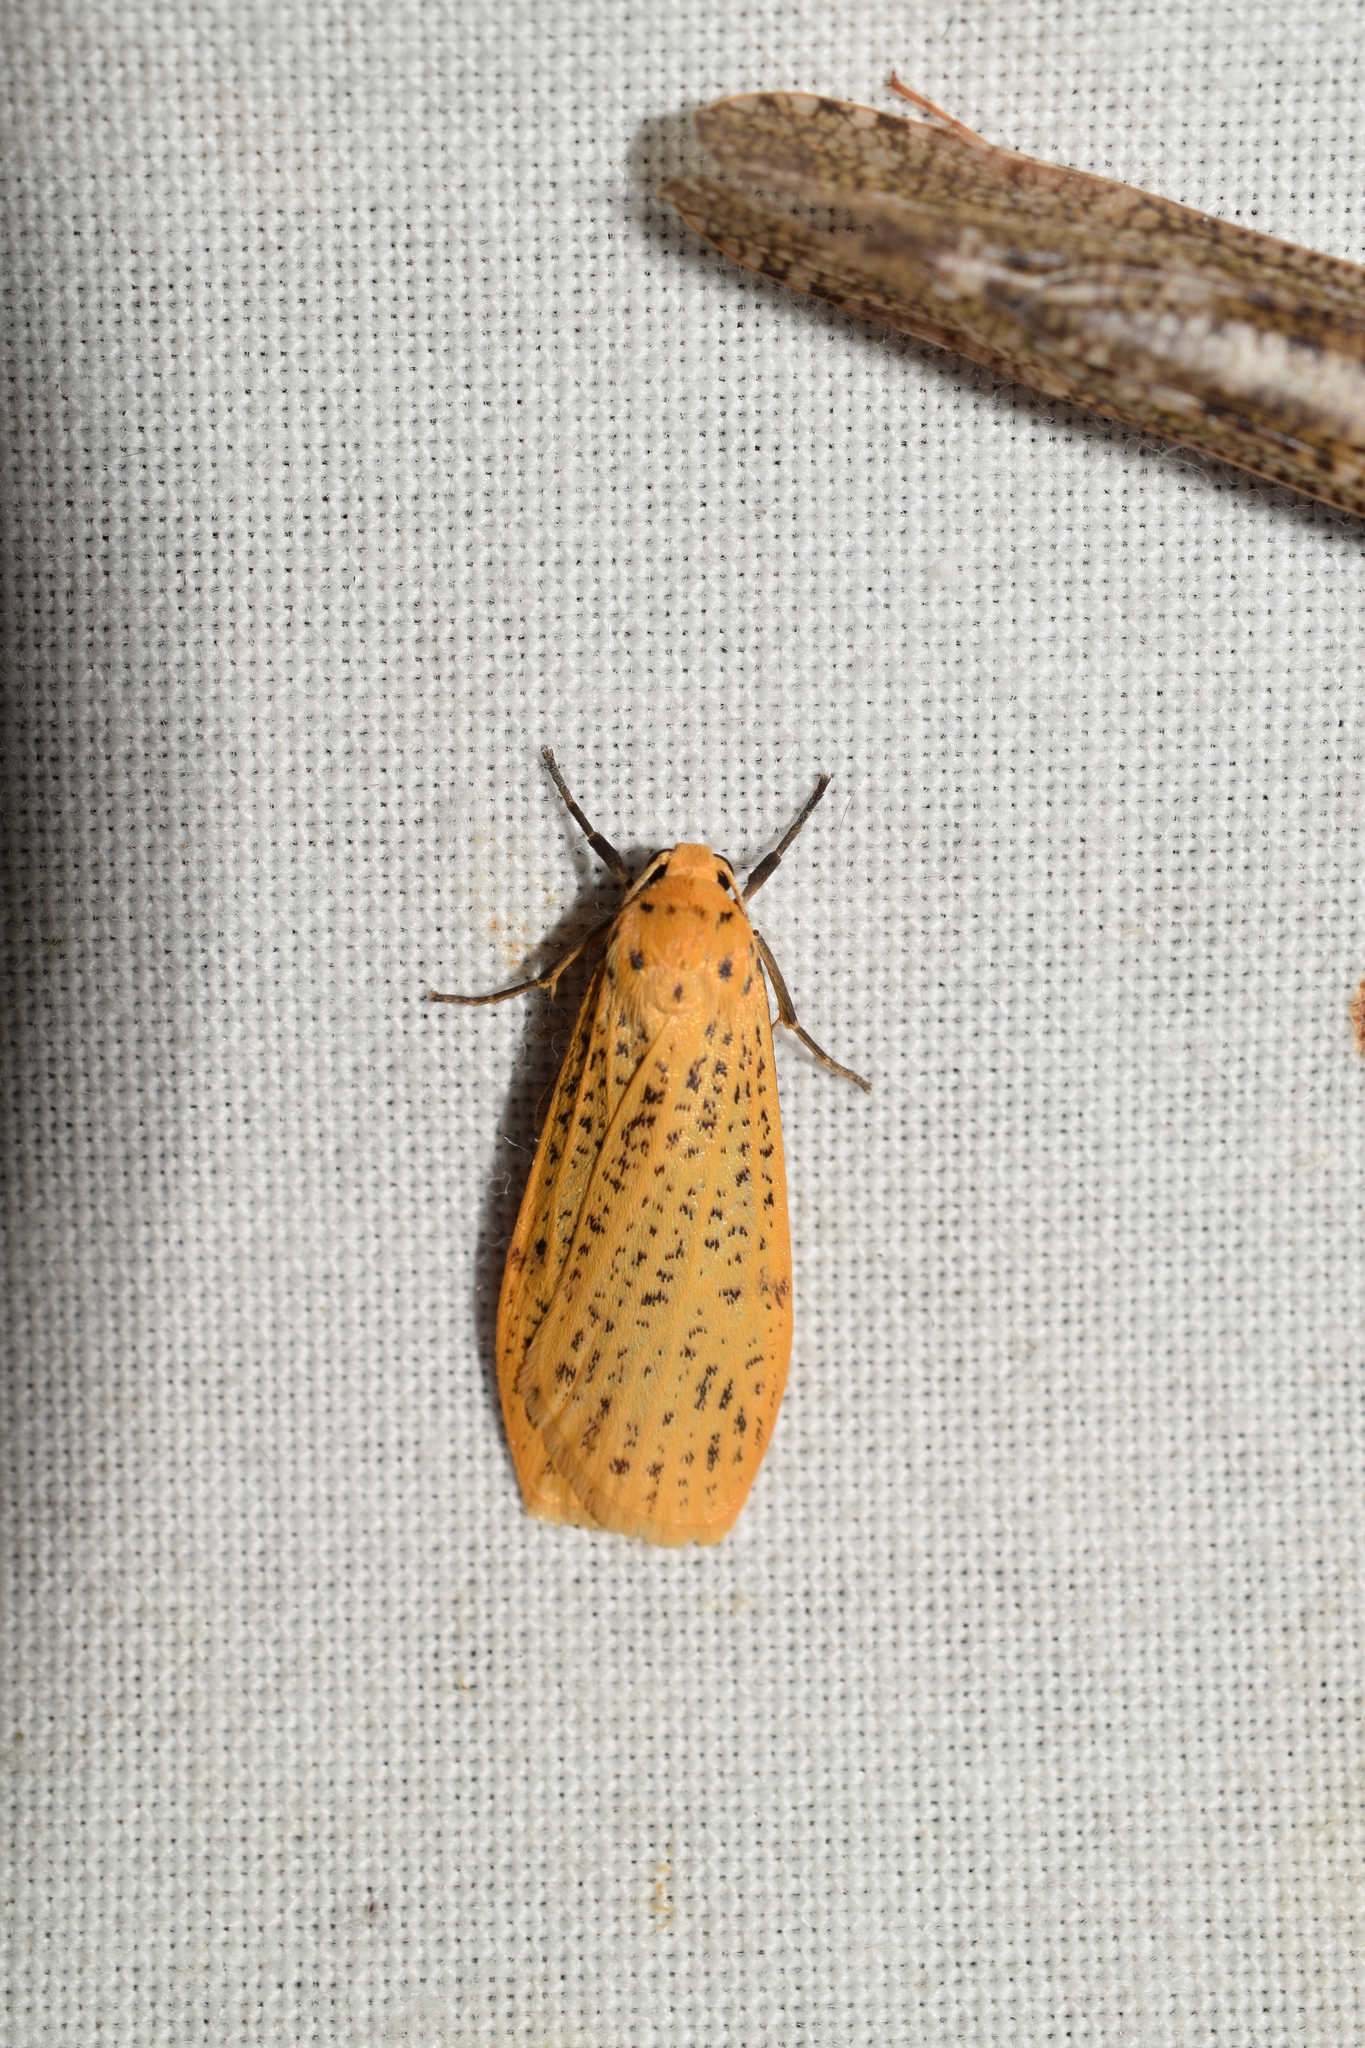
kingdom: Animalia
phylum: Arthropoda
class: Insecta
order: Lepidoptera
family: Erebidae
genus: Dolgoma
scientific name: Dolgoma cribrata
